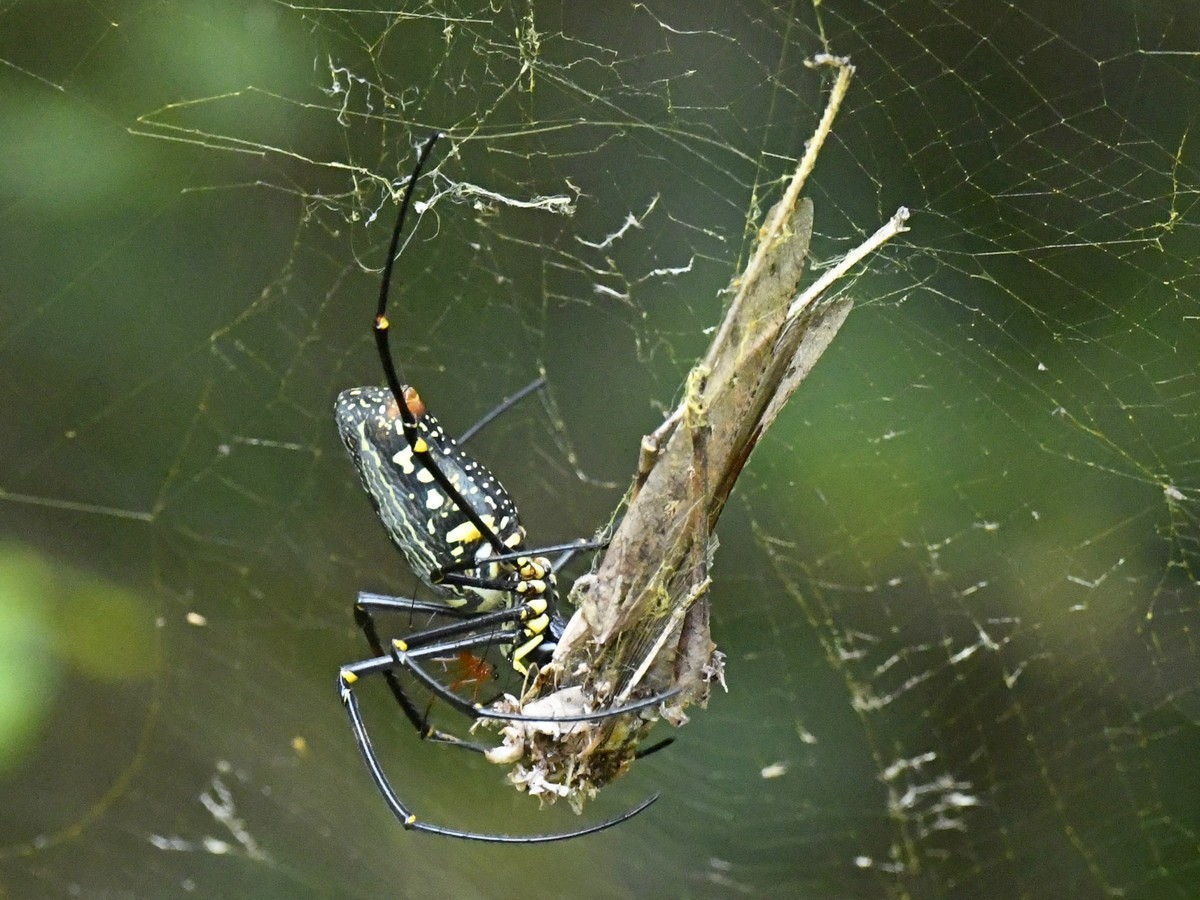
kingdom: Animalia
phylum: Arthropoda
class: Arachnida
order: Araneae
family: Araneidae
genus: Nephila
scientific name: Nephila pilipes
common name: Giant golden orb weaver
